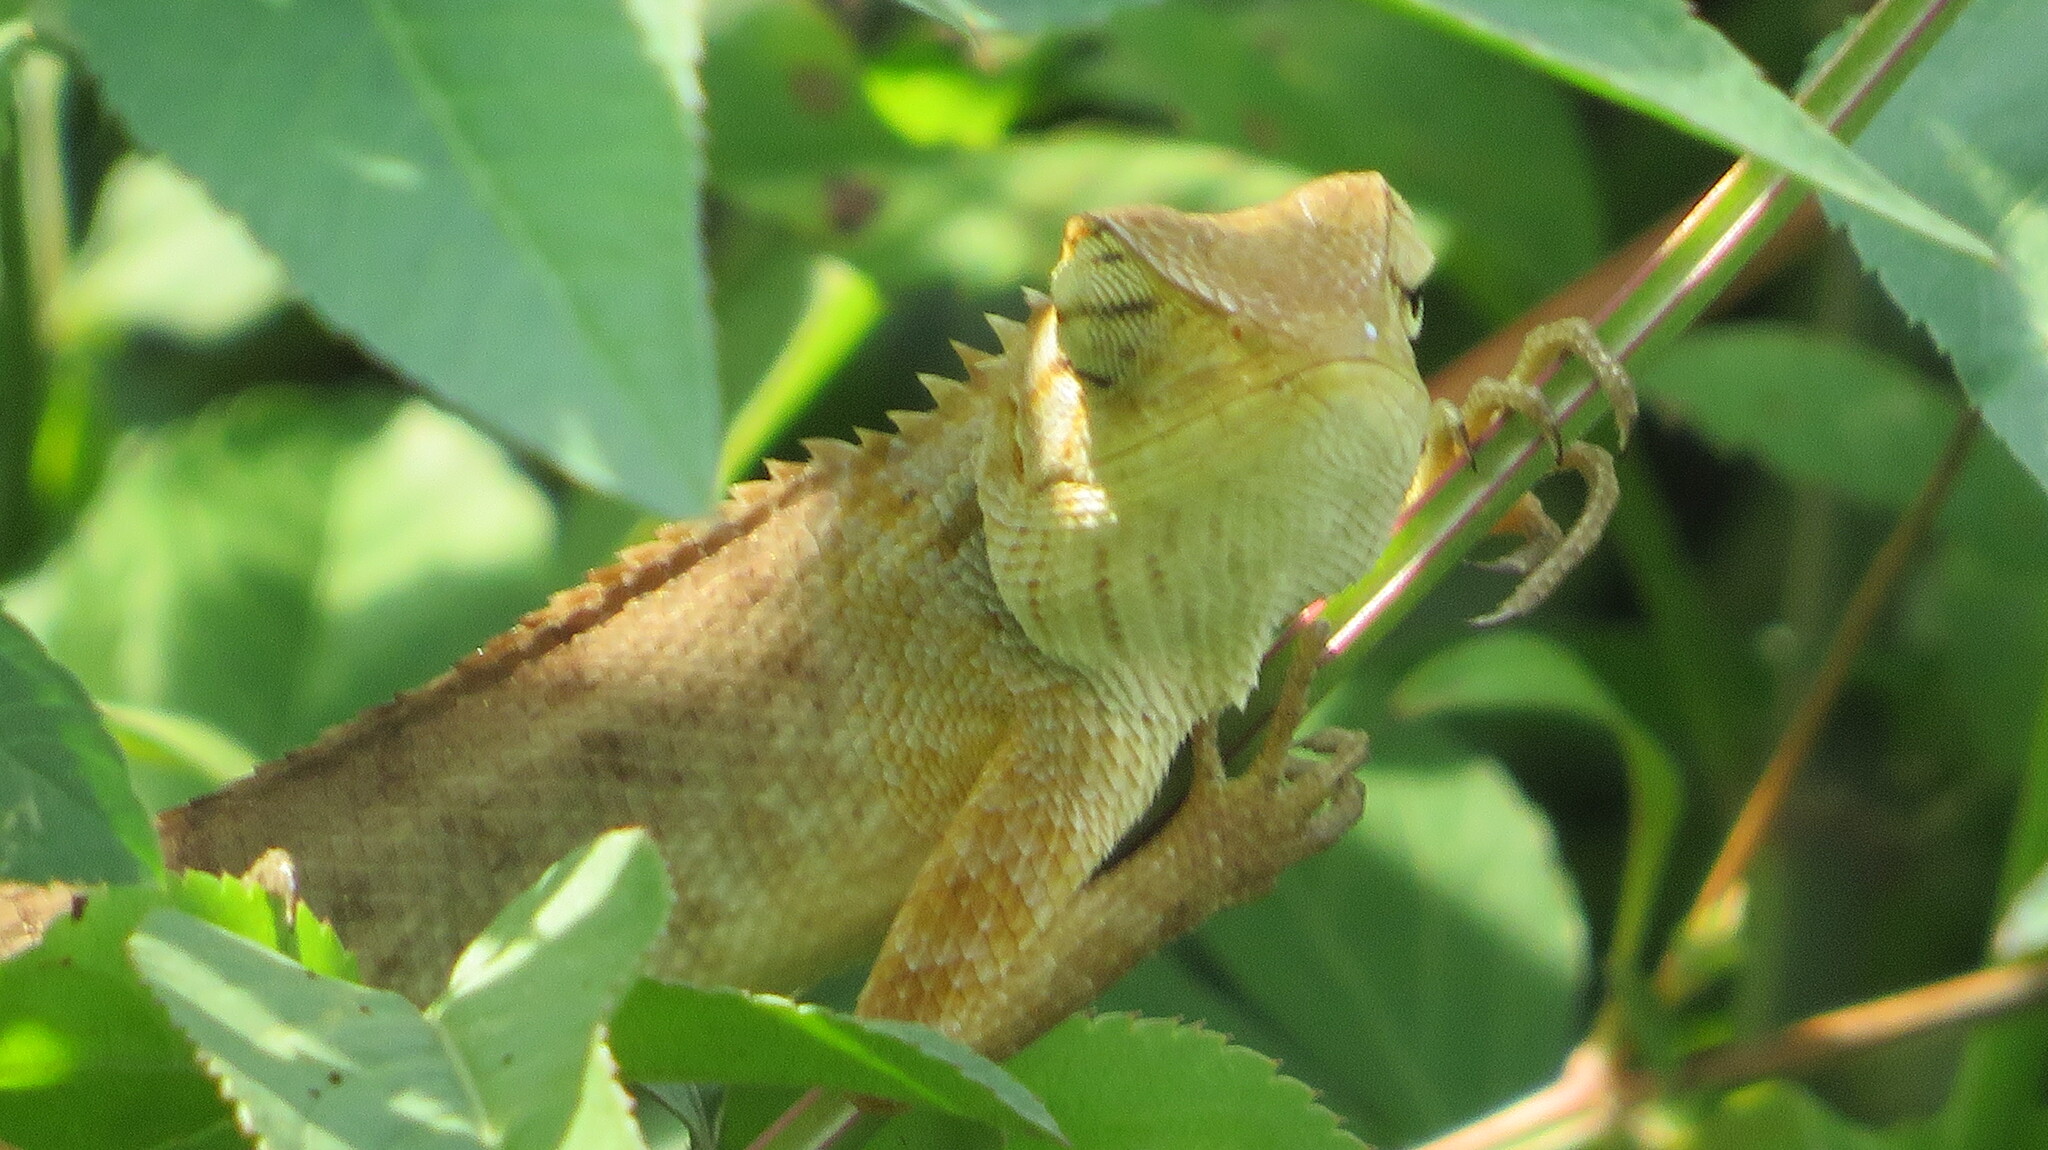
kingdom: Animalia
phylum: Chordata
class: Squamata
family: Agamidae
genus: Calotes
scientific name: Calotes versicolor
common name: Oriental garden lizard
